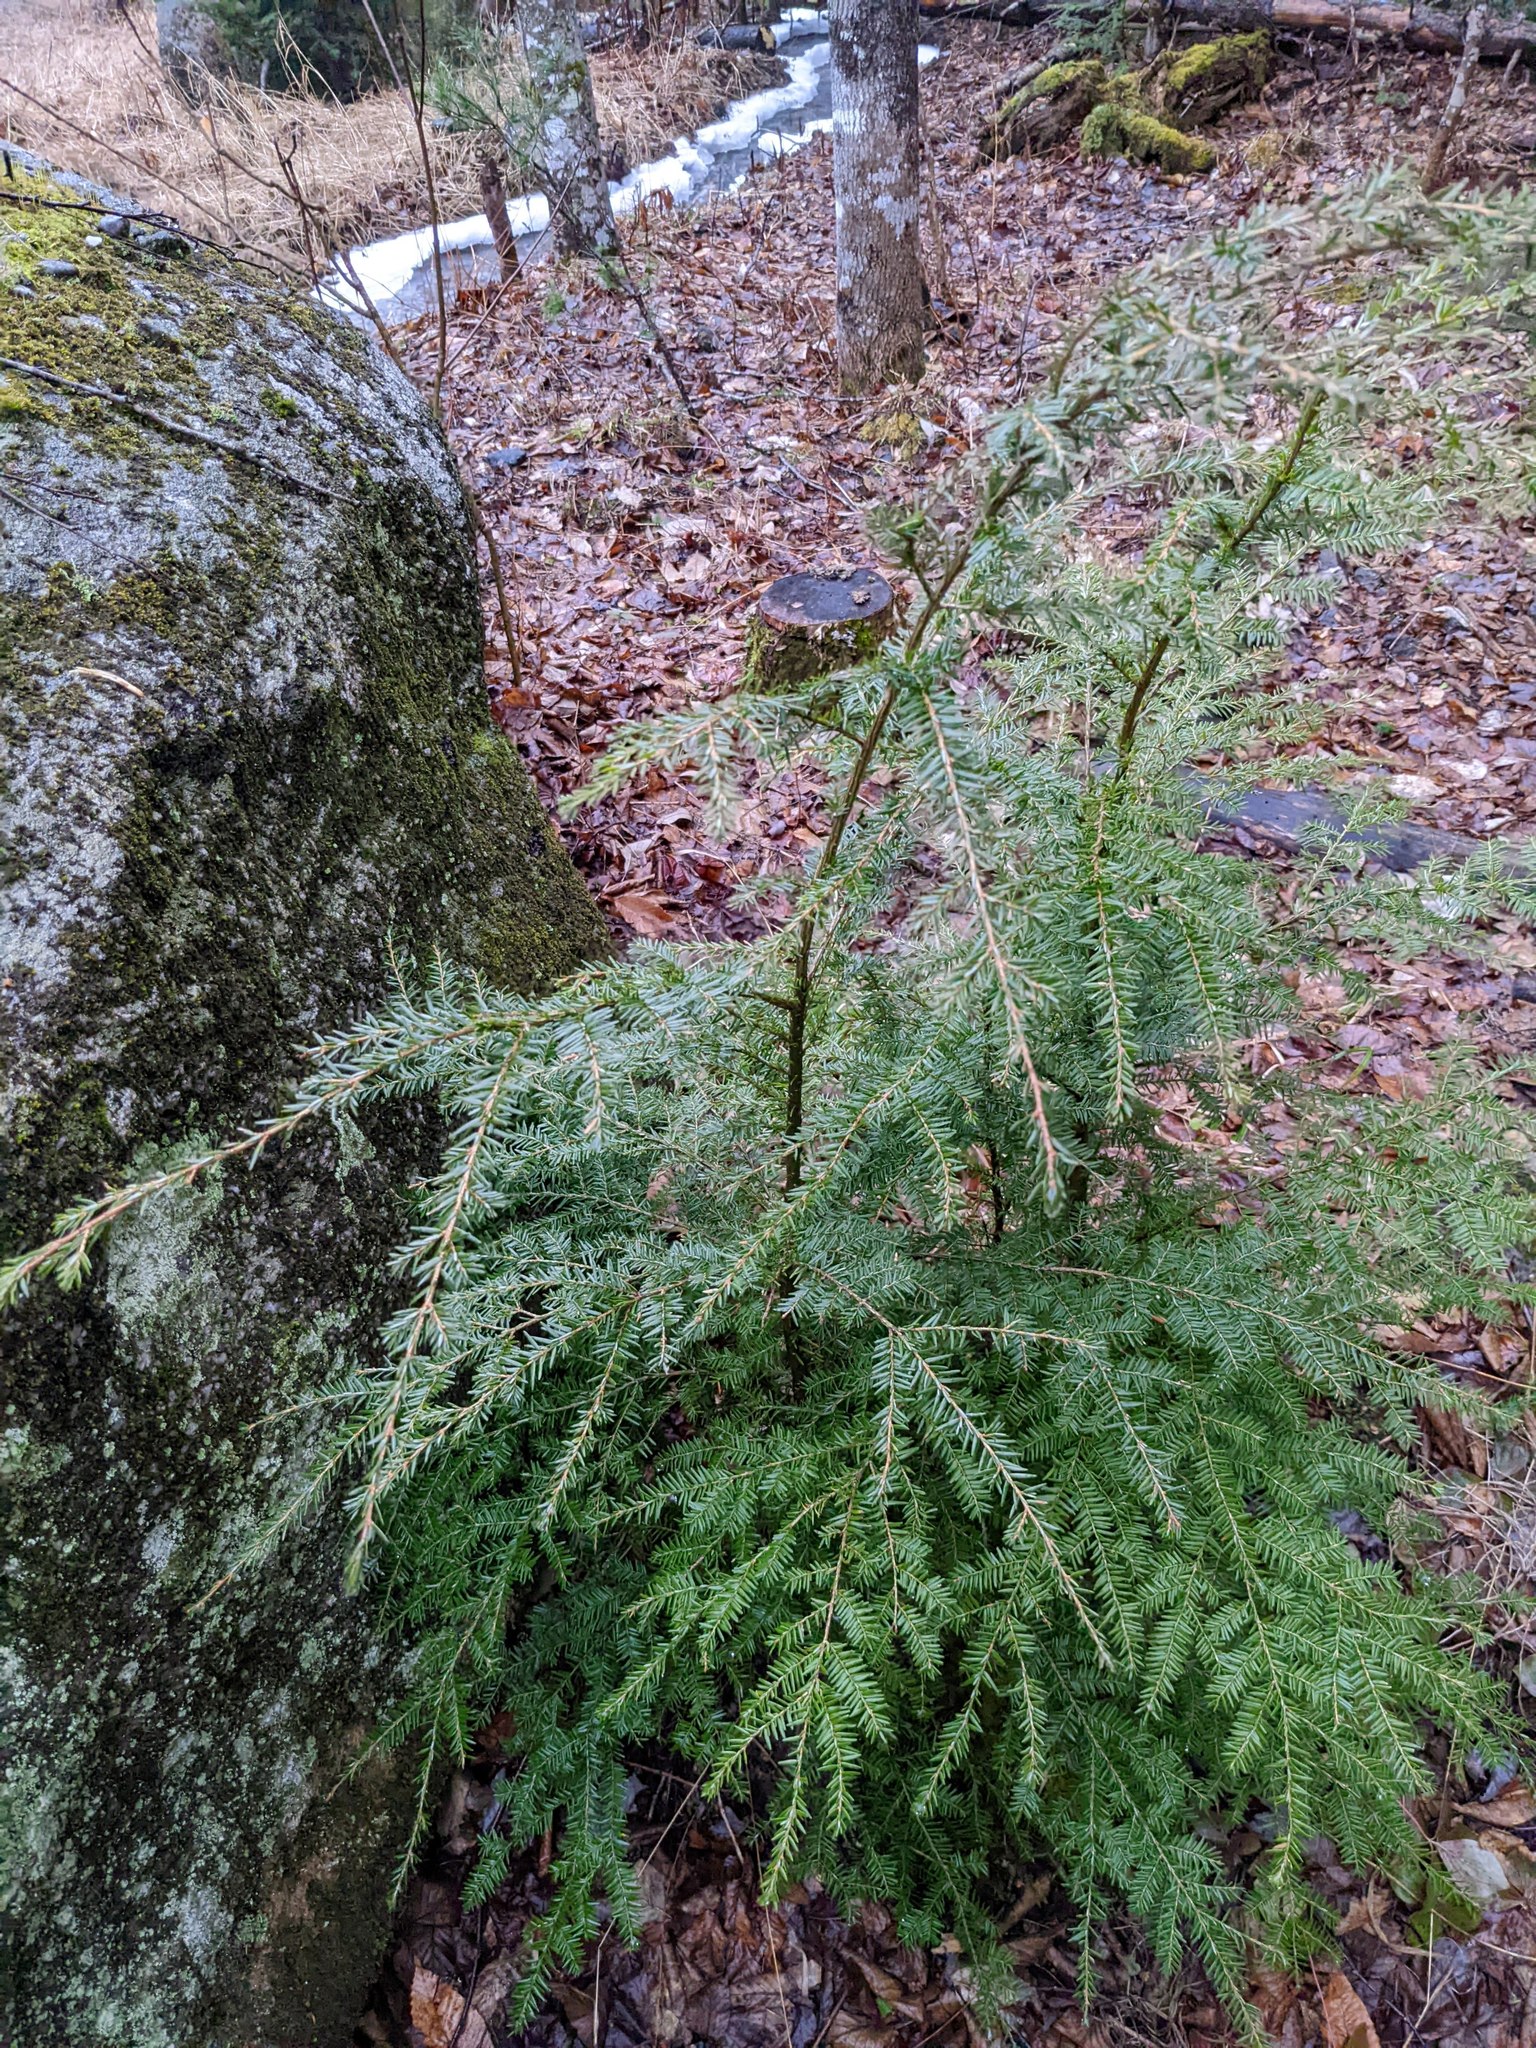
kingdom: Plantae
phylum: Tracheophyta
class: Pinopsida
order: Pinales
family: Pinaceae
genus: Tsuga
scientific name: Tsuga canadensis
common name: Eastern hemlock
